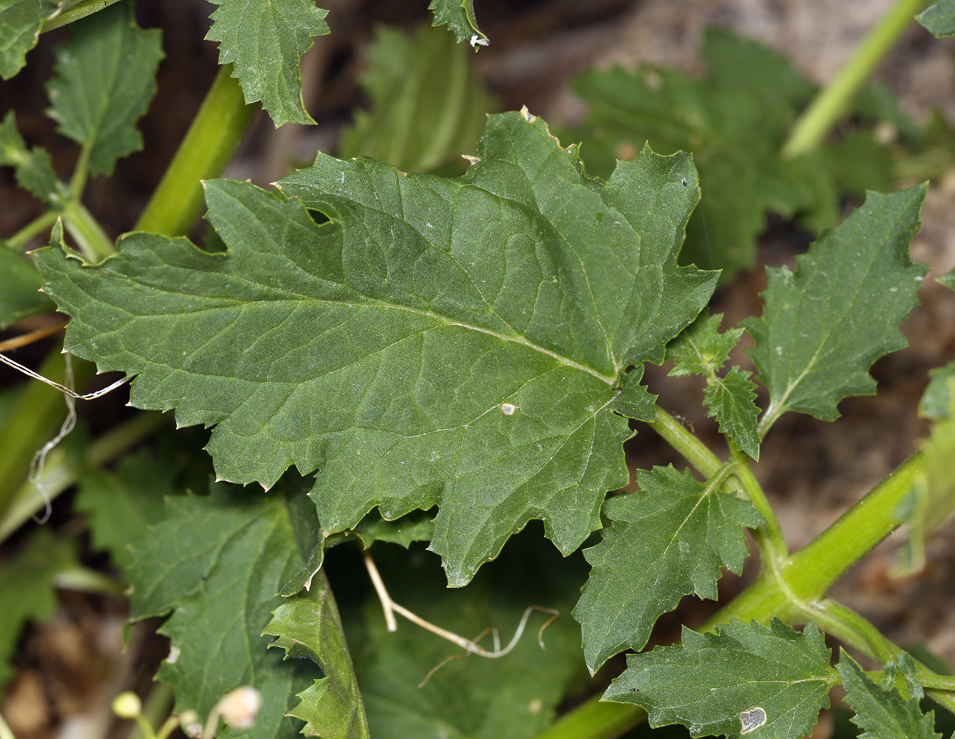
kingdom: Plantae
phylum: Tracheophyta
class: Magnoliopsida
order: Lamiales
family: Scrophulariaceae
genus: Scrophularia
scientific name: Scrophularia desertorum
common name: Desert figwort
